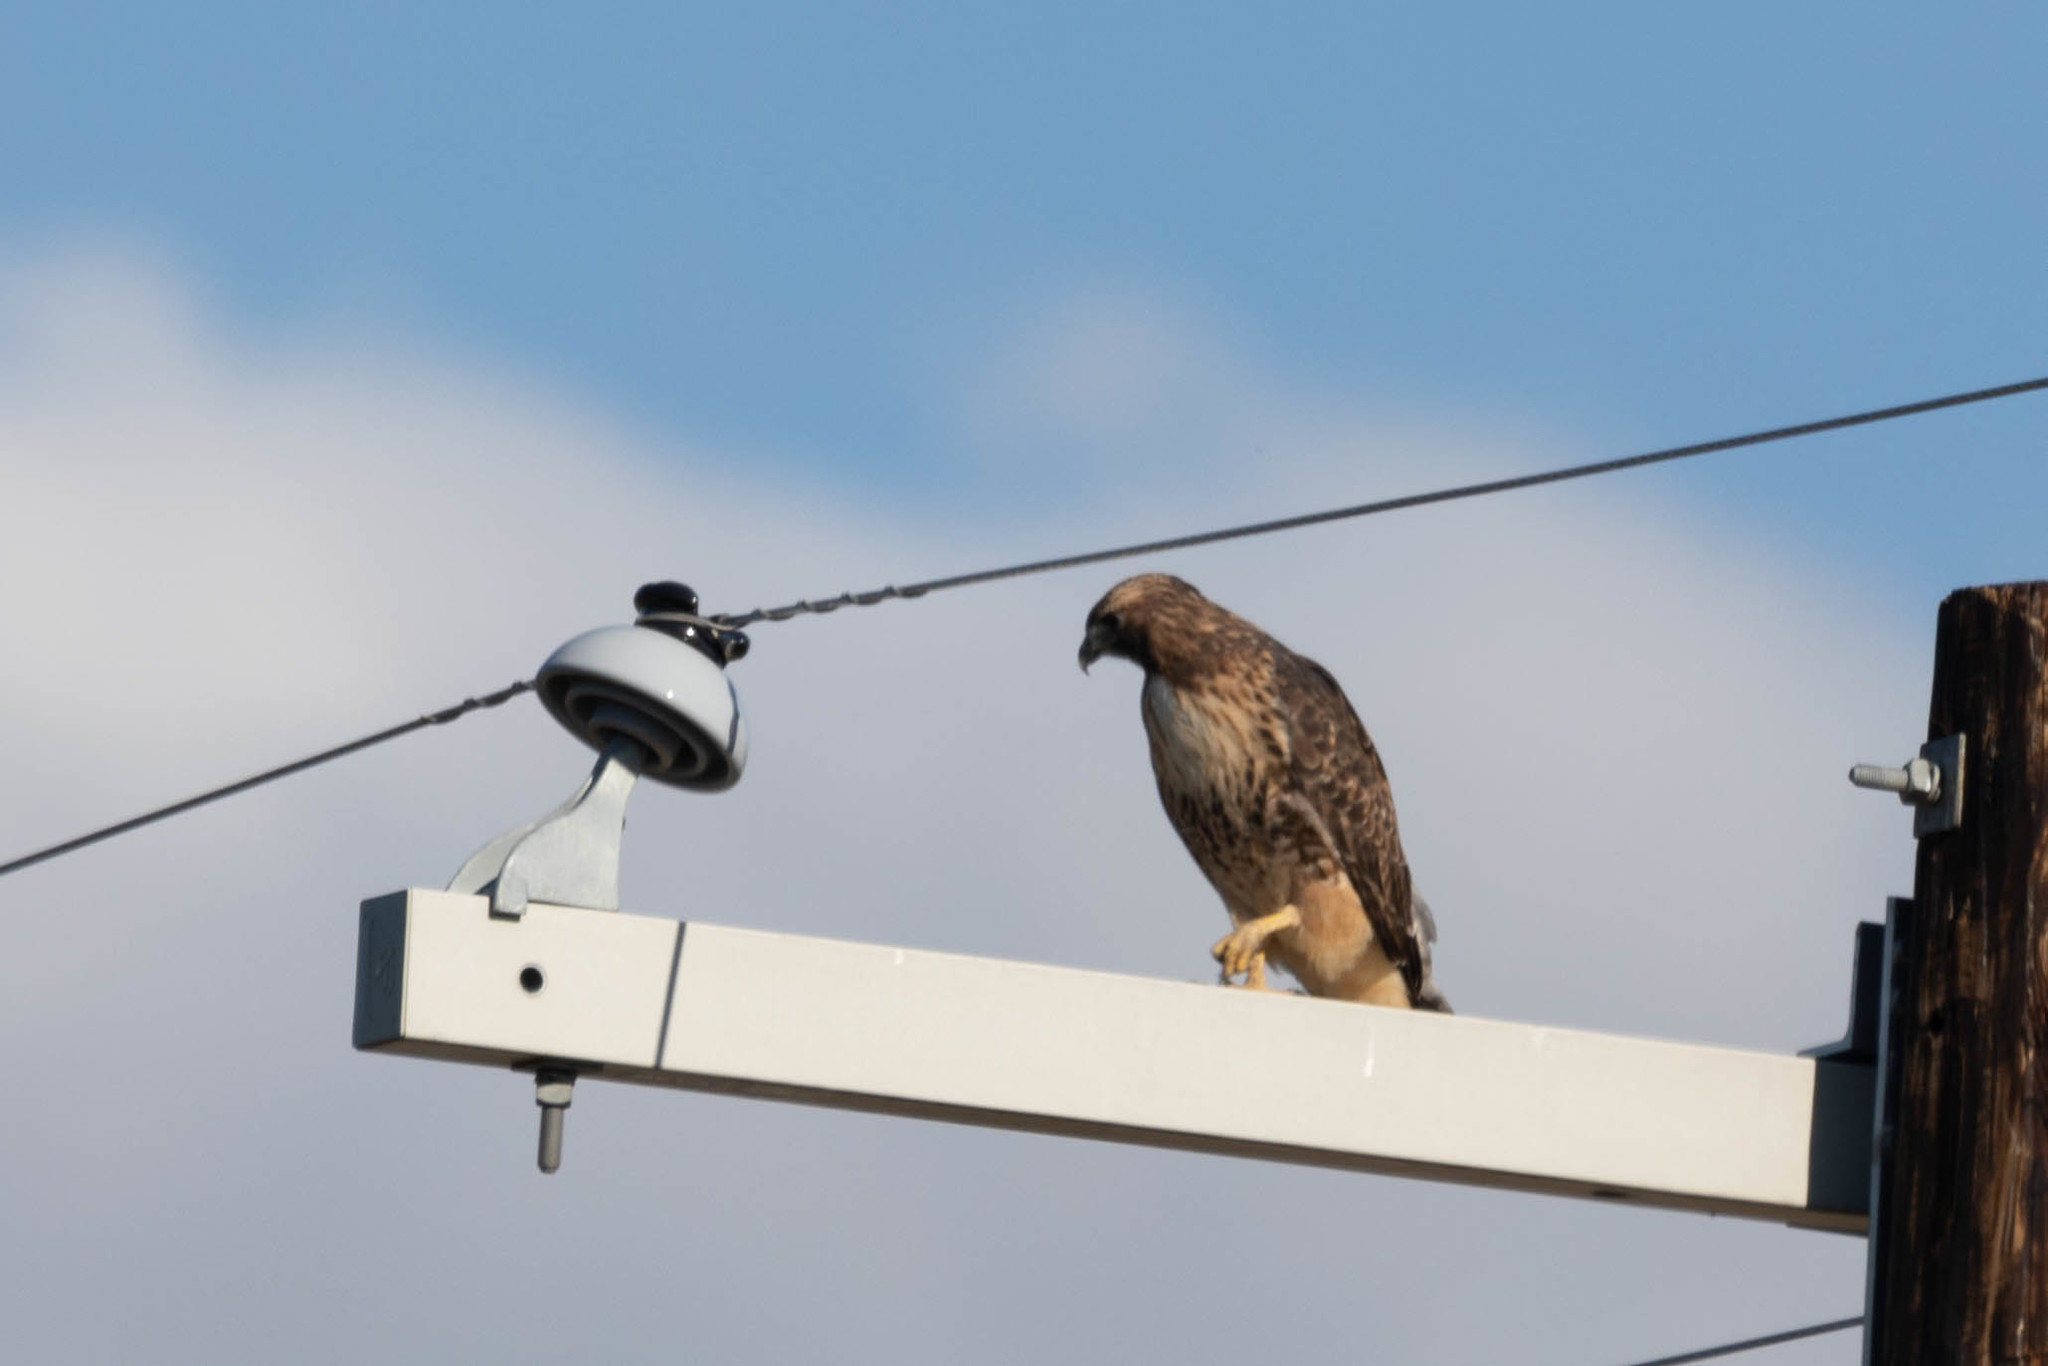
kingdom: Animalia
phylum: Chordata
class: Aves
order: Accipitriformes
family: Accipitridae
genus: Buteo
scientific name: Buteo jamaicensis
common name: Red-tailed hawk
